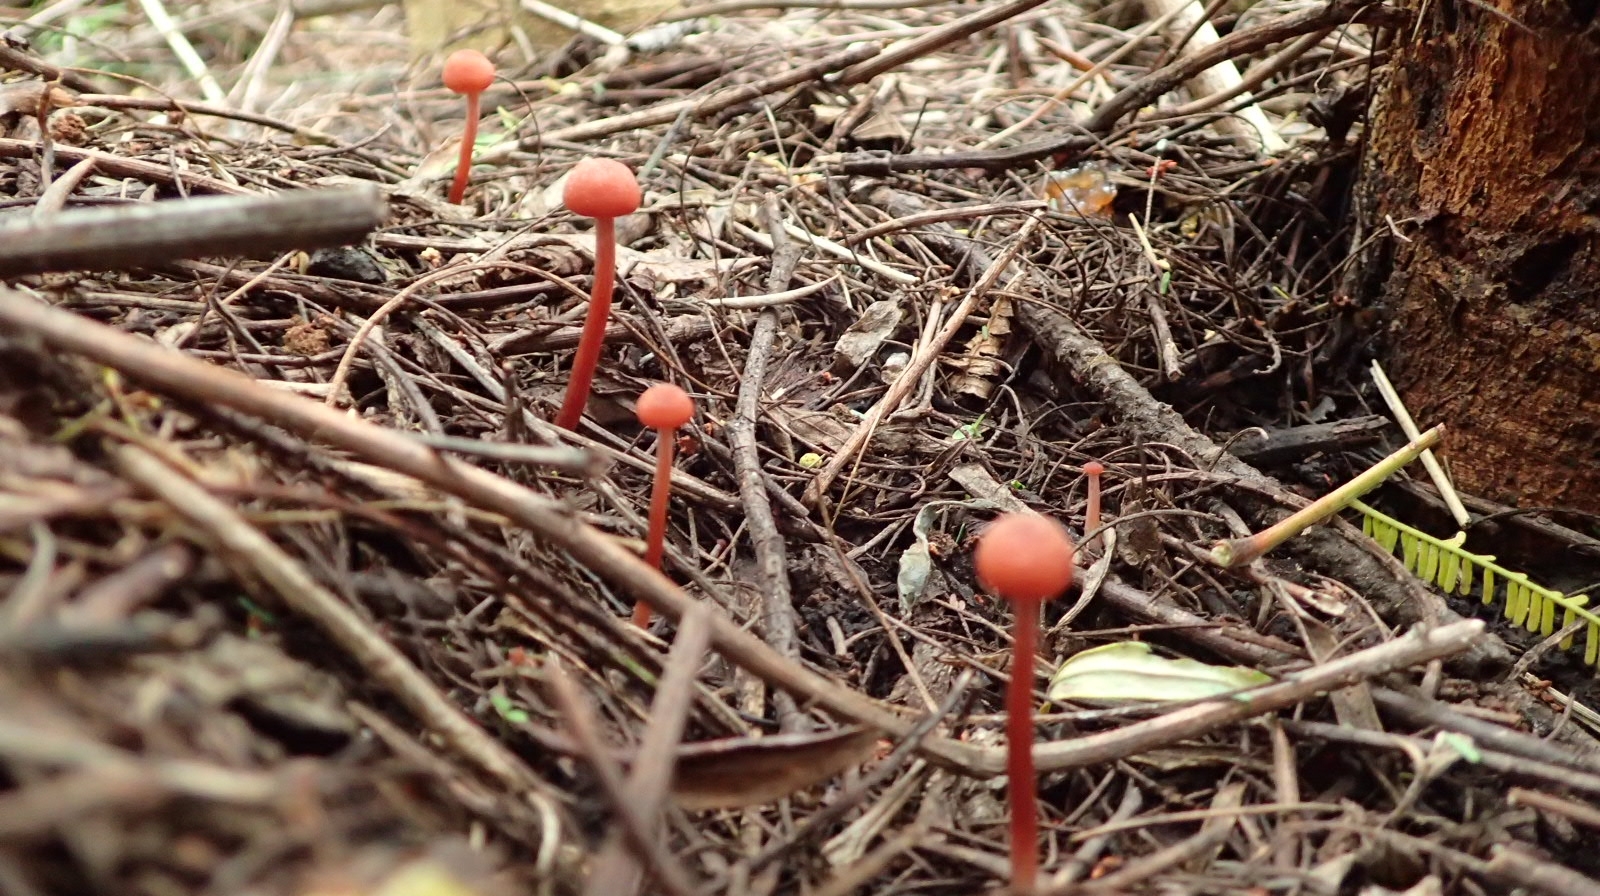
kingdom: Fungi
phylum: Basidiomycota
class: Agaricomycetes
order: Agaricales
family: Mycenaceae
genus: Cruentomycena
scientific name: Cruentomycena viscidocruenta
